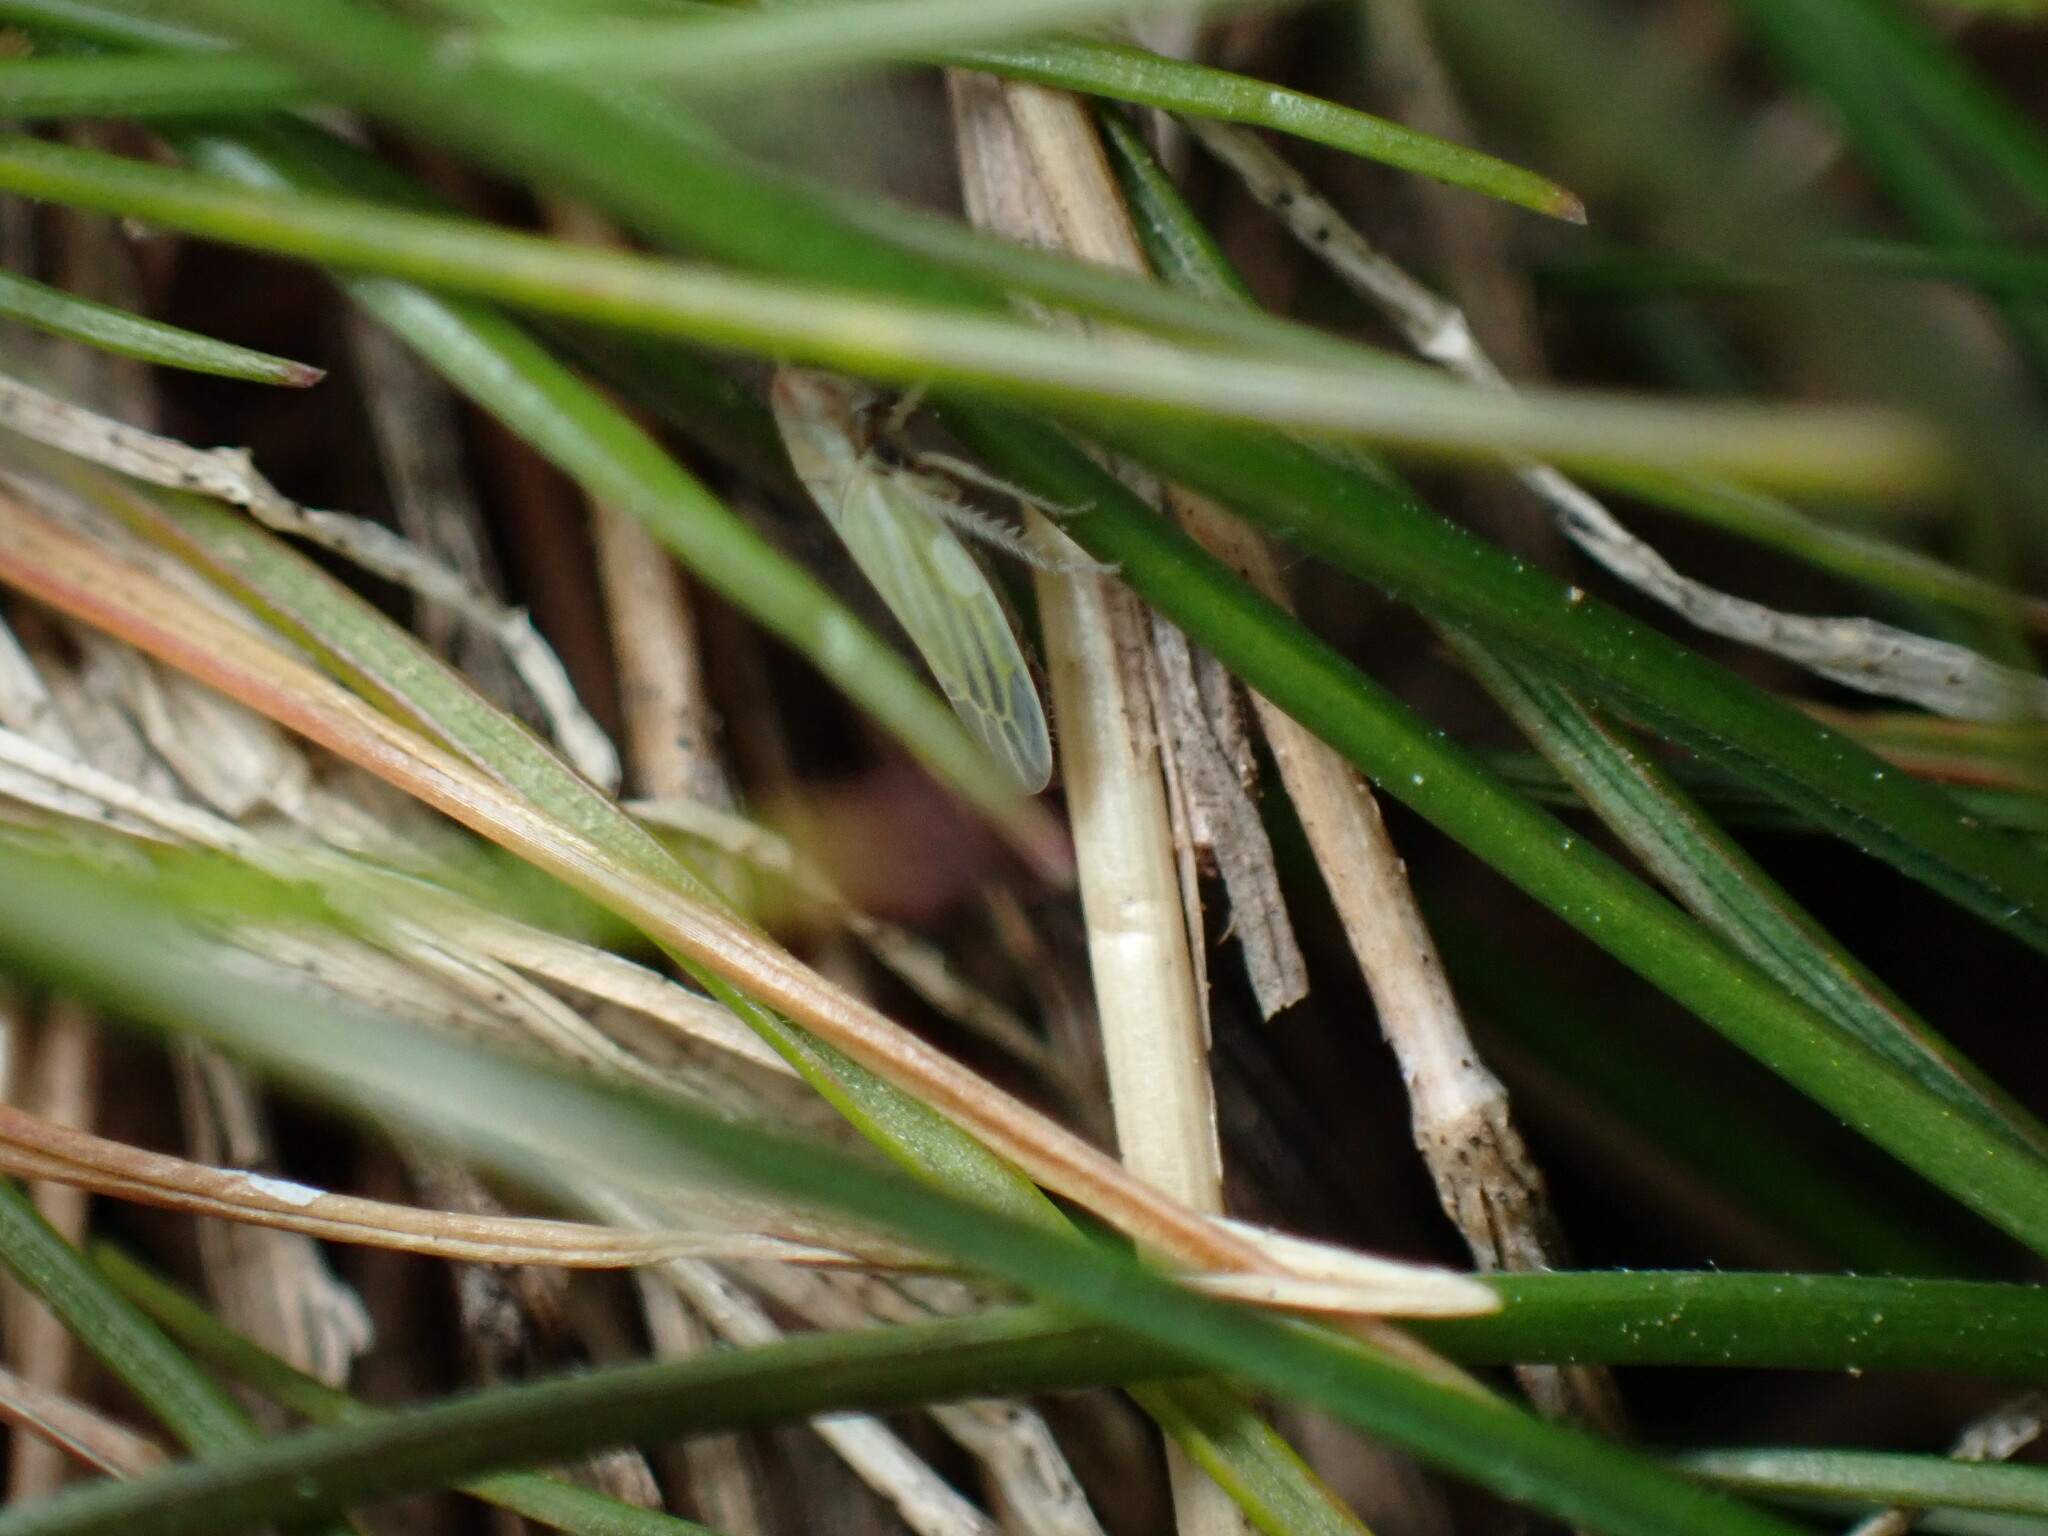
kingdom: Animalia
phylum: Arthropoda
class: Insecta
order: Hemiptera
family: Cicadellidae
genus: Dikraneura
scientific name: Dikraneura arizona
